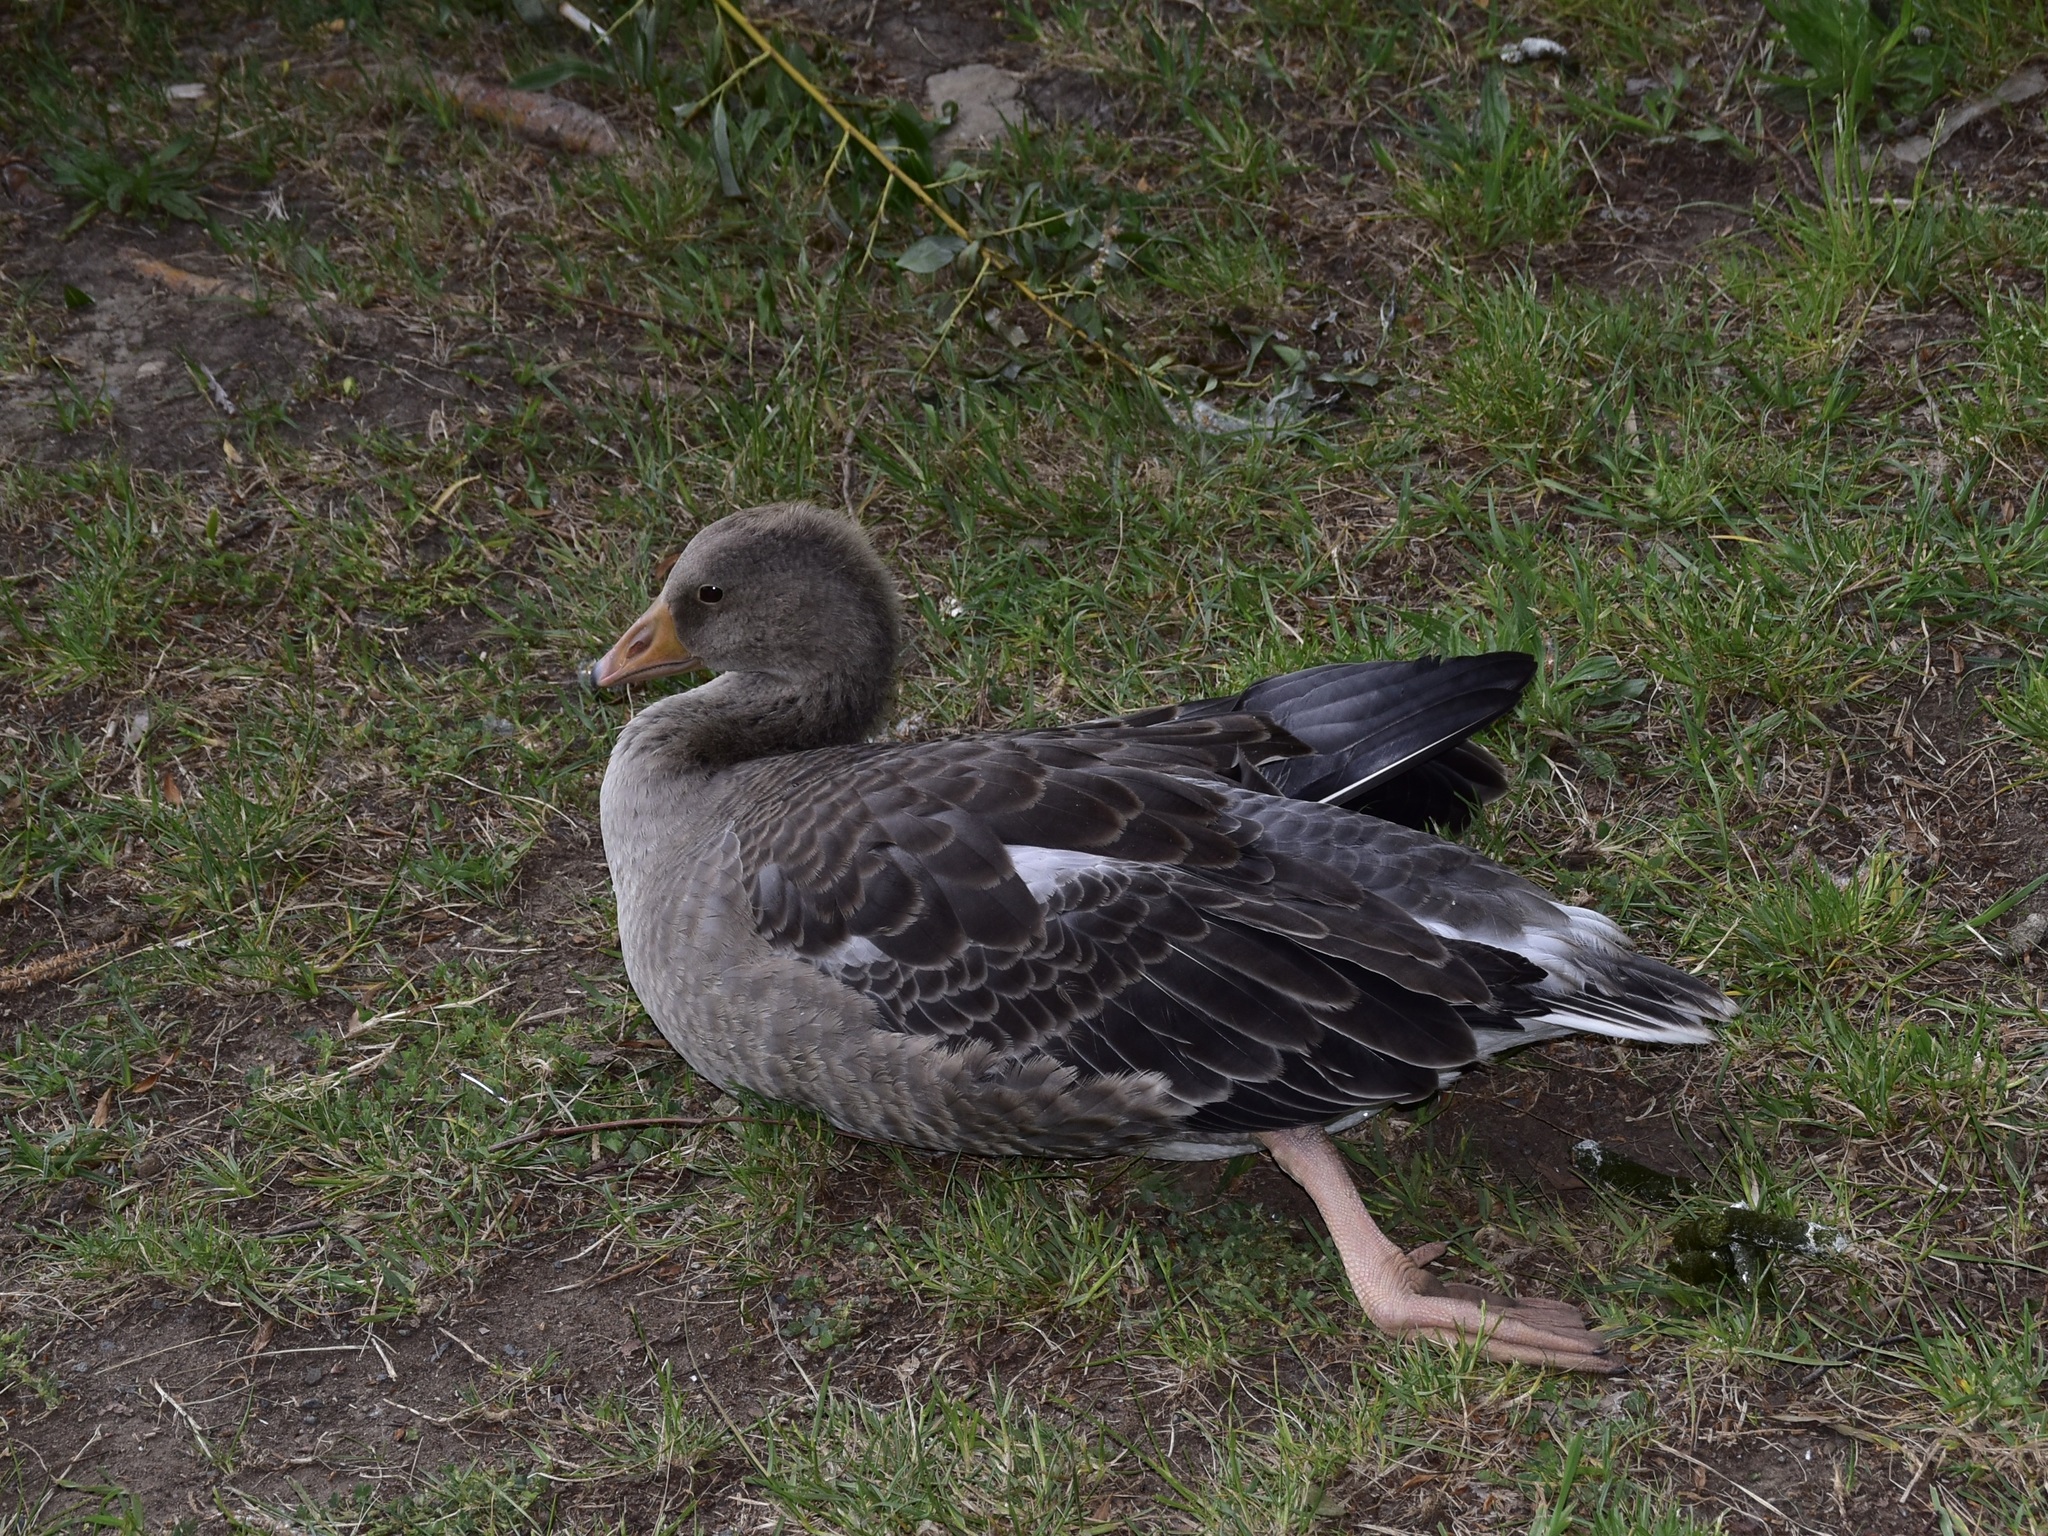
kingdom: Animalia
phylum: Chordata
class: Aves
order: Anseriformes
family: Anatidae
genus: Anser
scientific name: Anser anser
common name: Greylag goose
